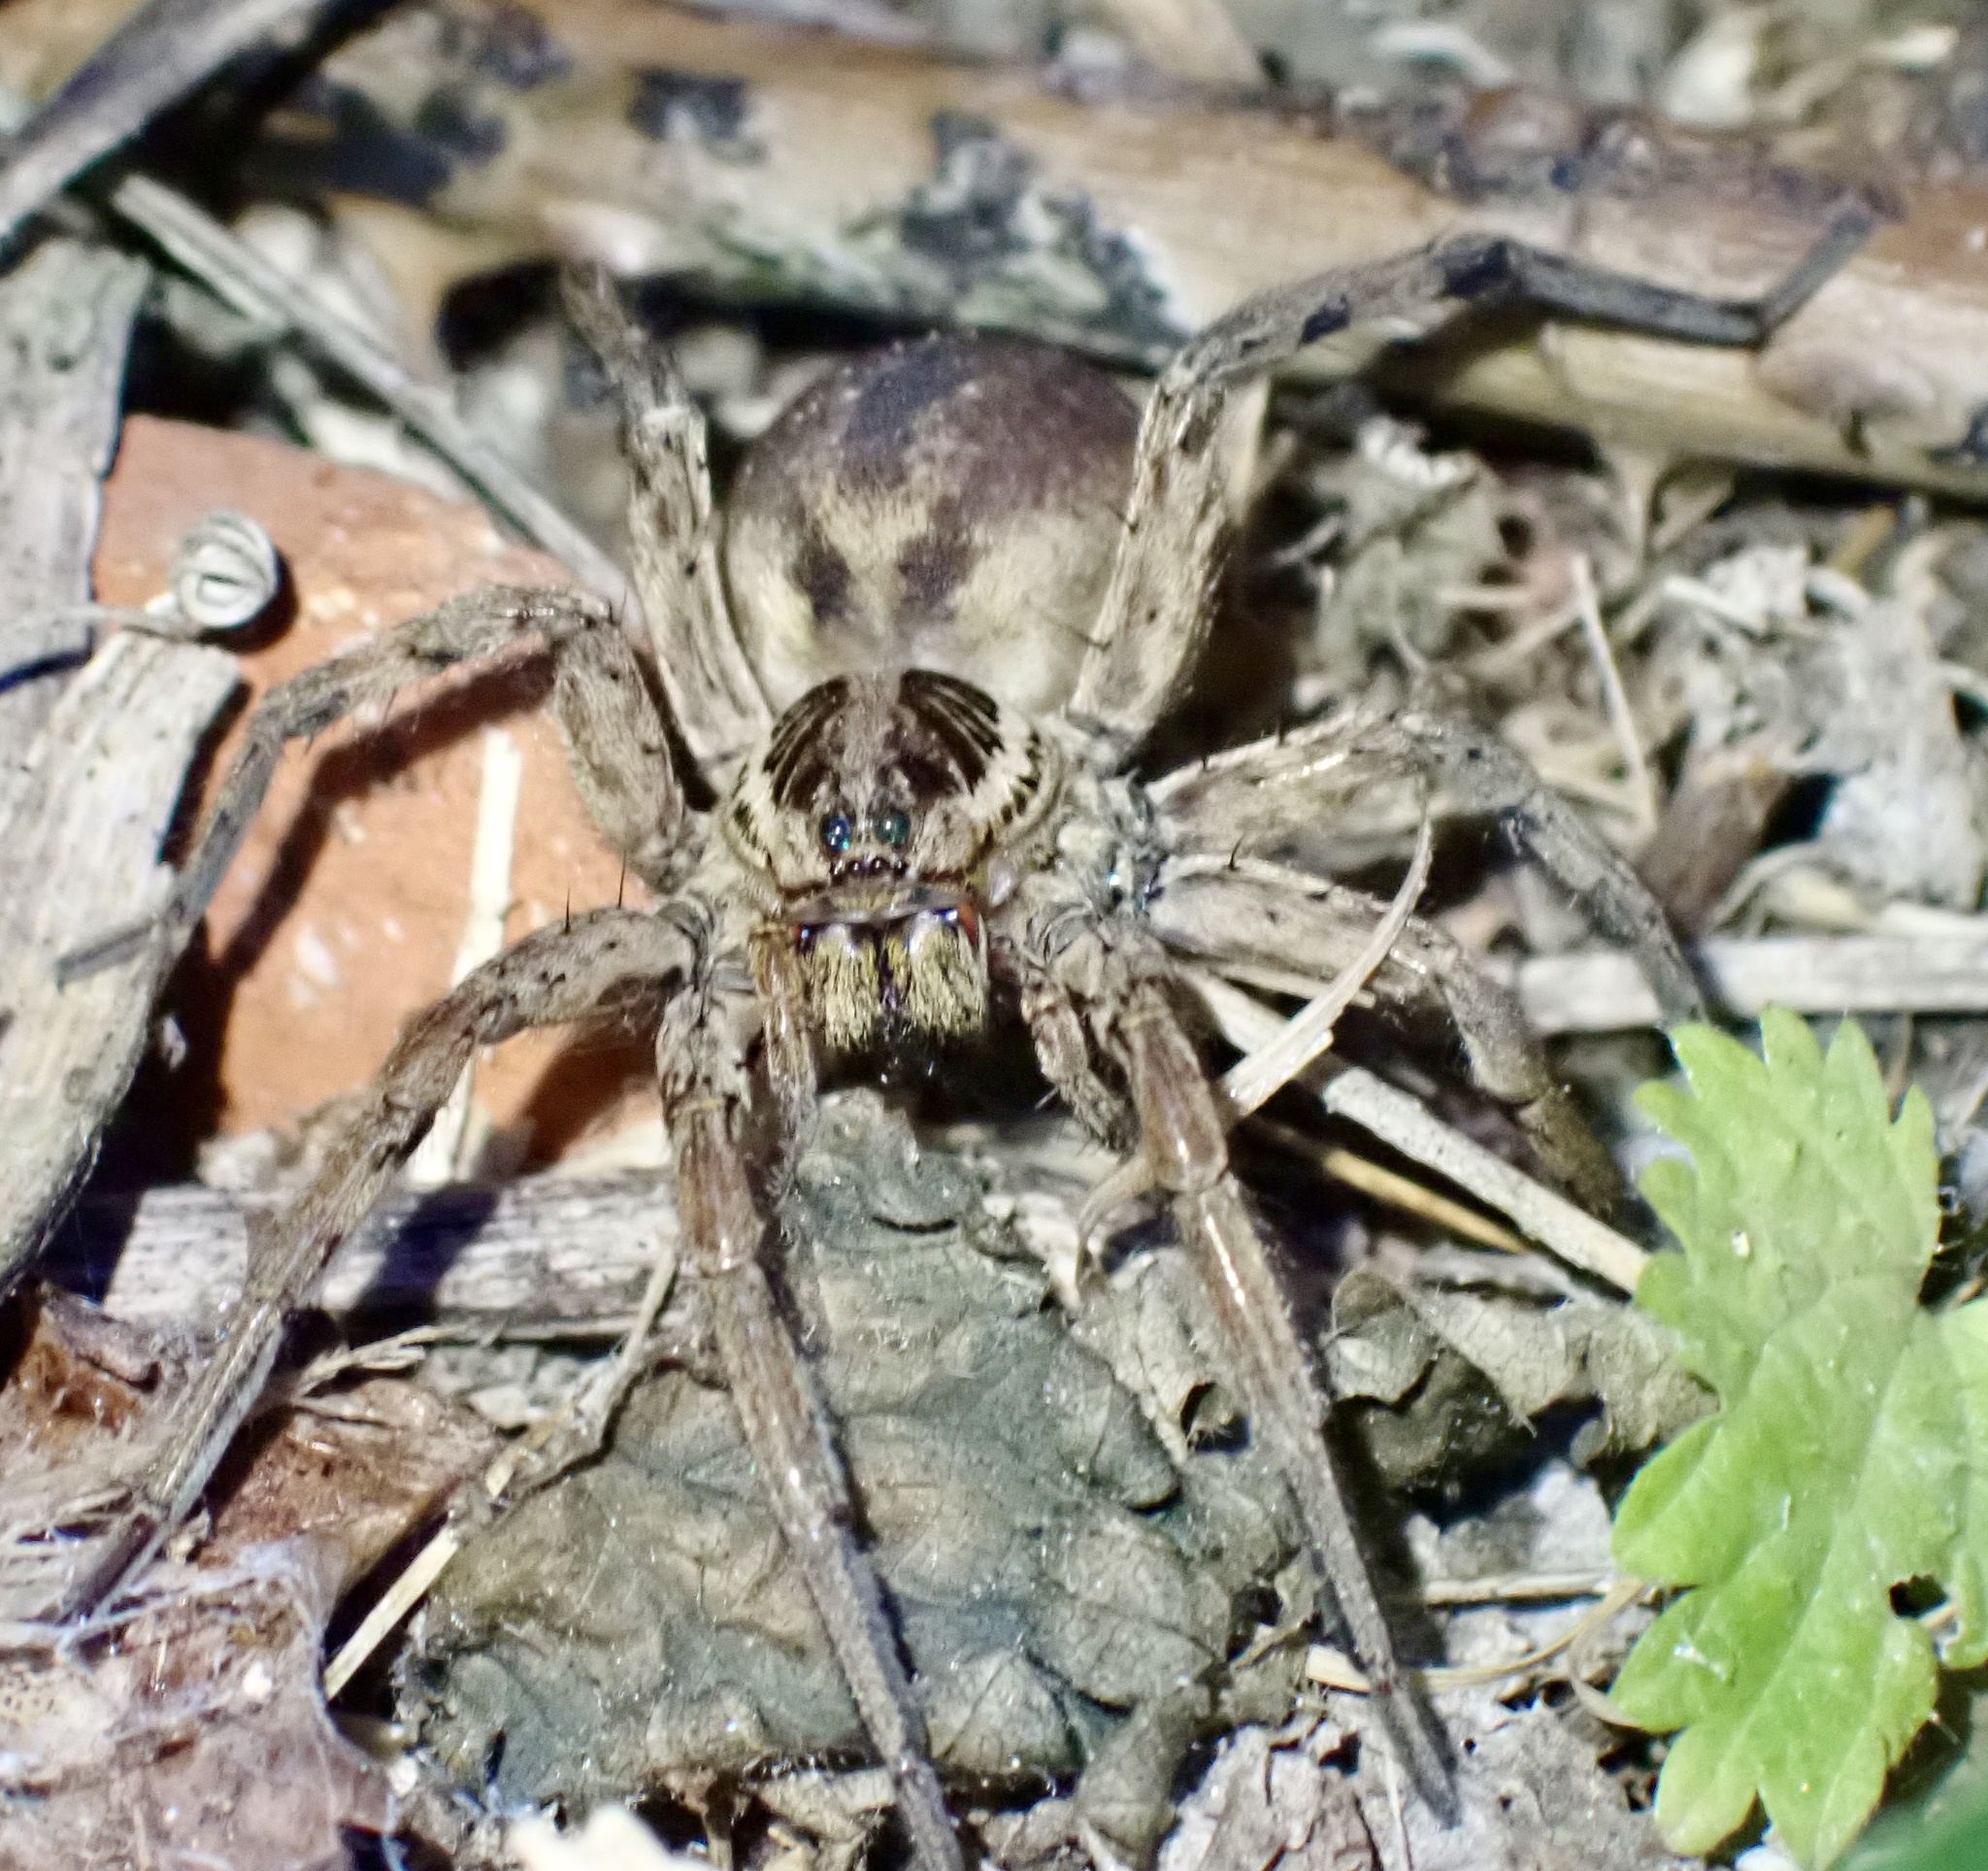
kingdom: Animalia
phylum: Arthropoda
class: Arachnida
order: Araneae
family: Lycosidae
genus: Hogna
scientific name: Hogna radiata
